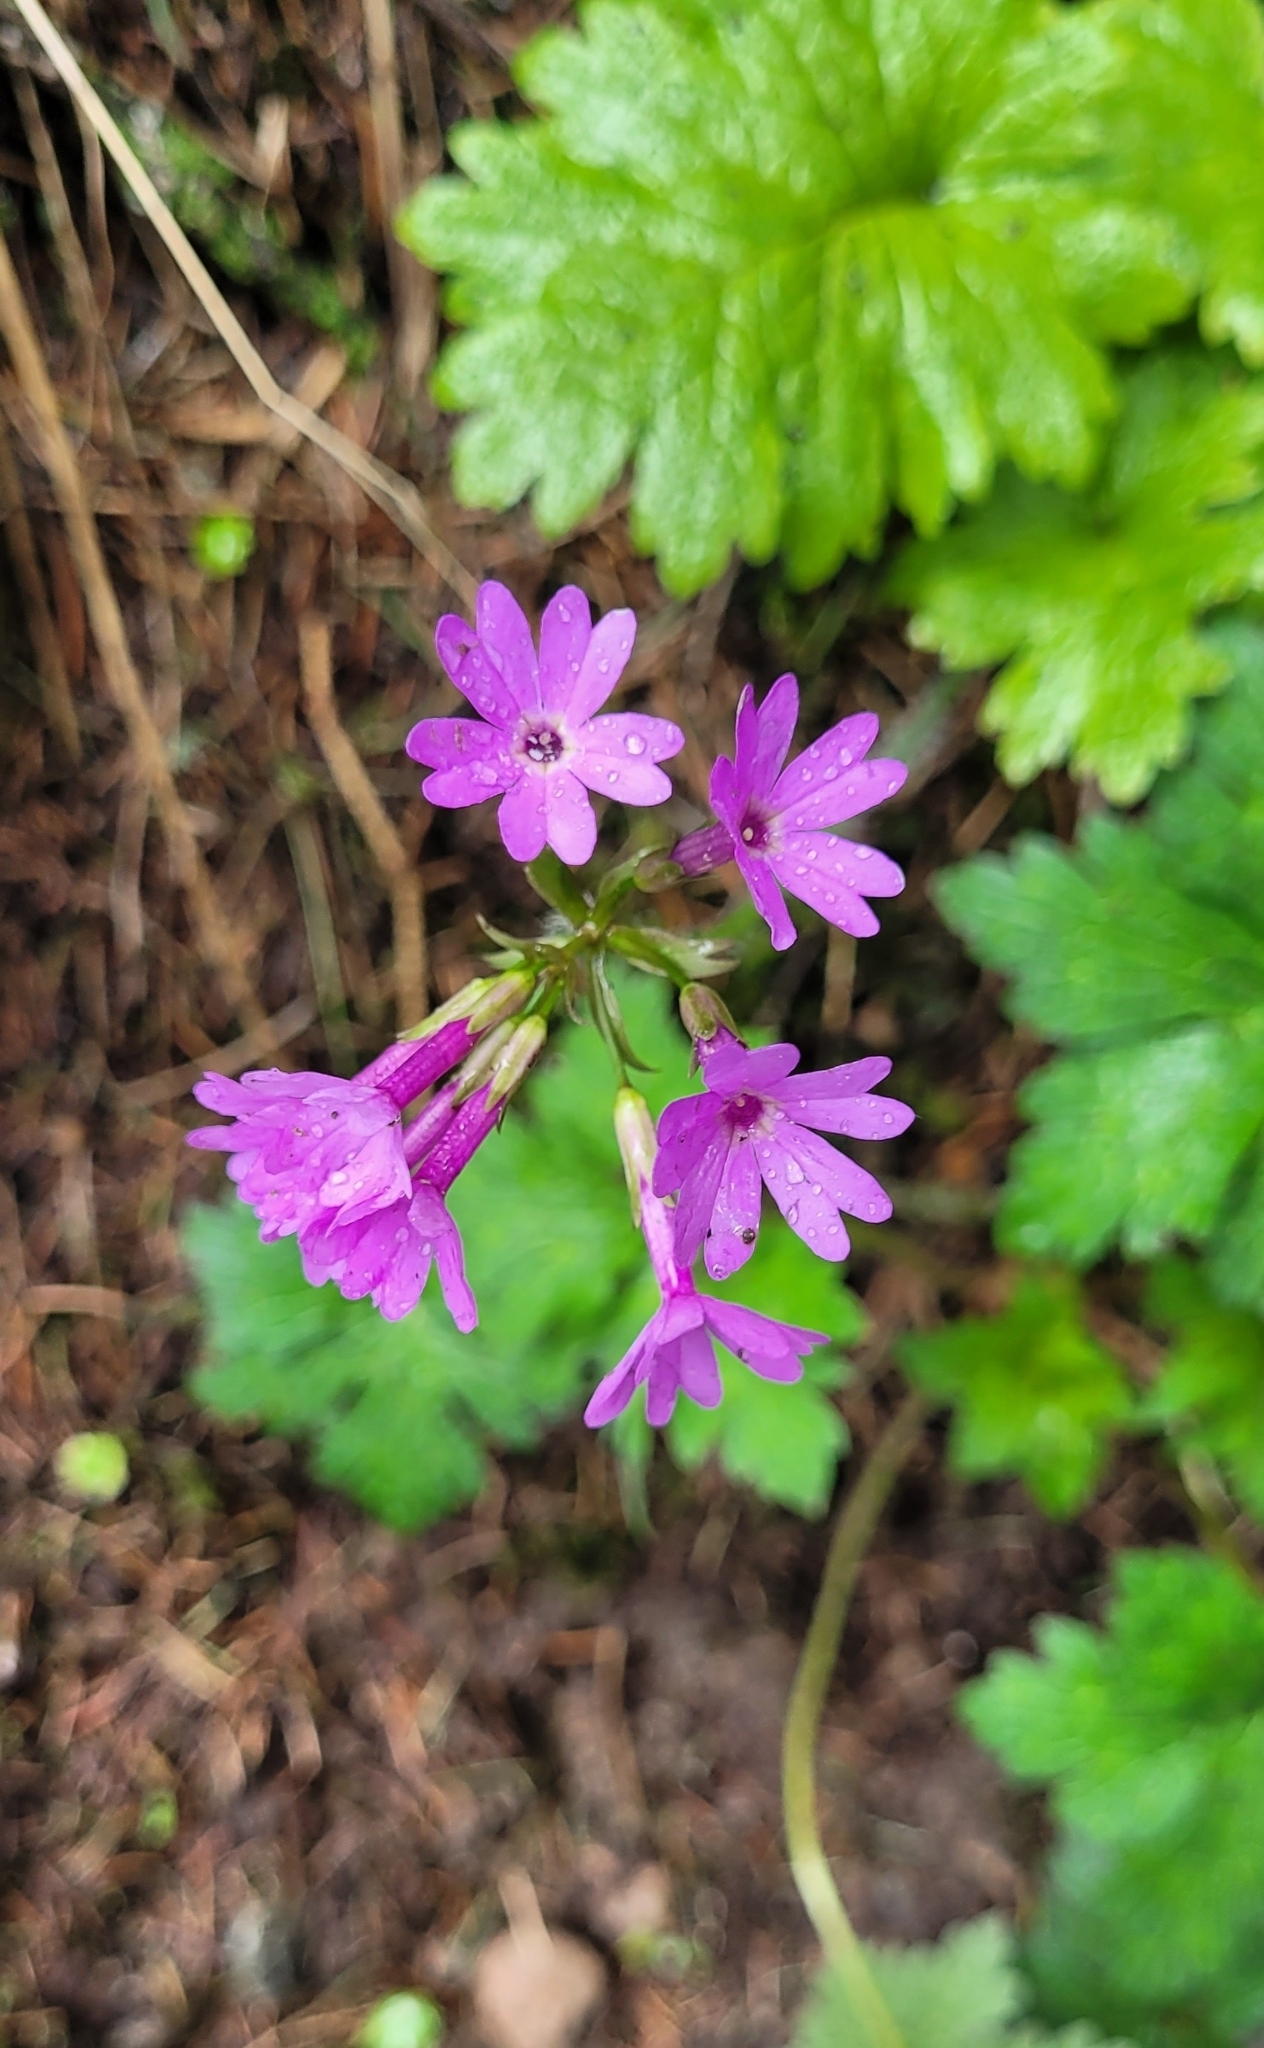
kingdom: Plantae
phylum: Tracheophyta
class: Magnoliopsida
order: Ericales
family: Primulaceae
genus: Primula
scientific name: Primula kaufmanniana
